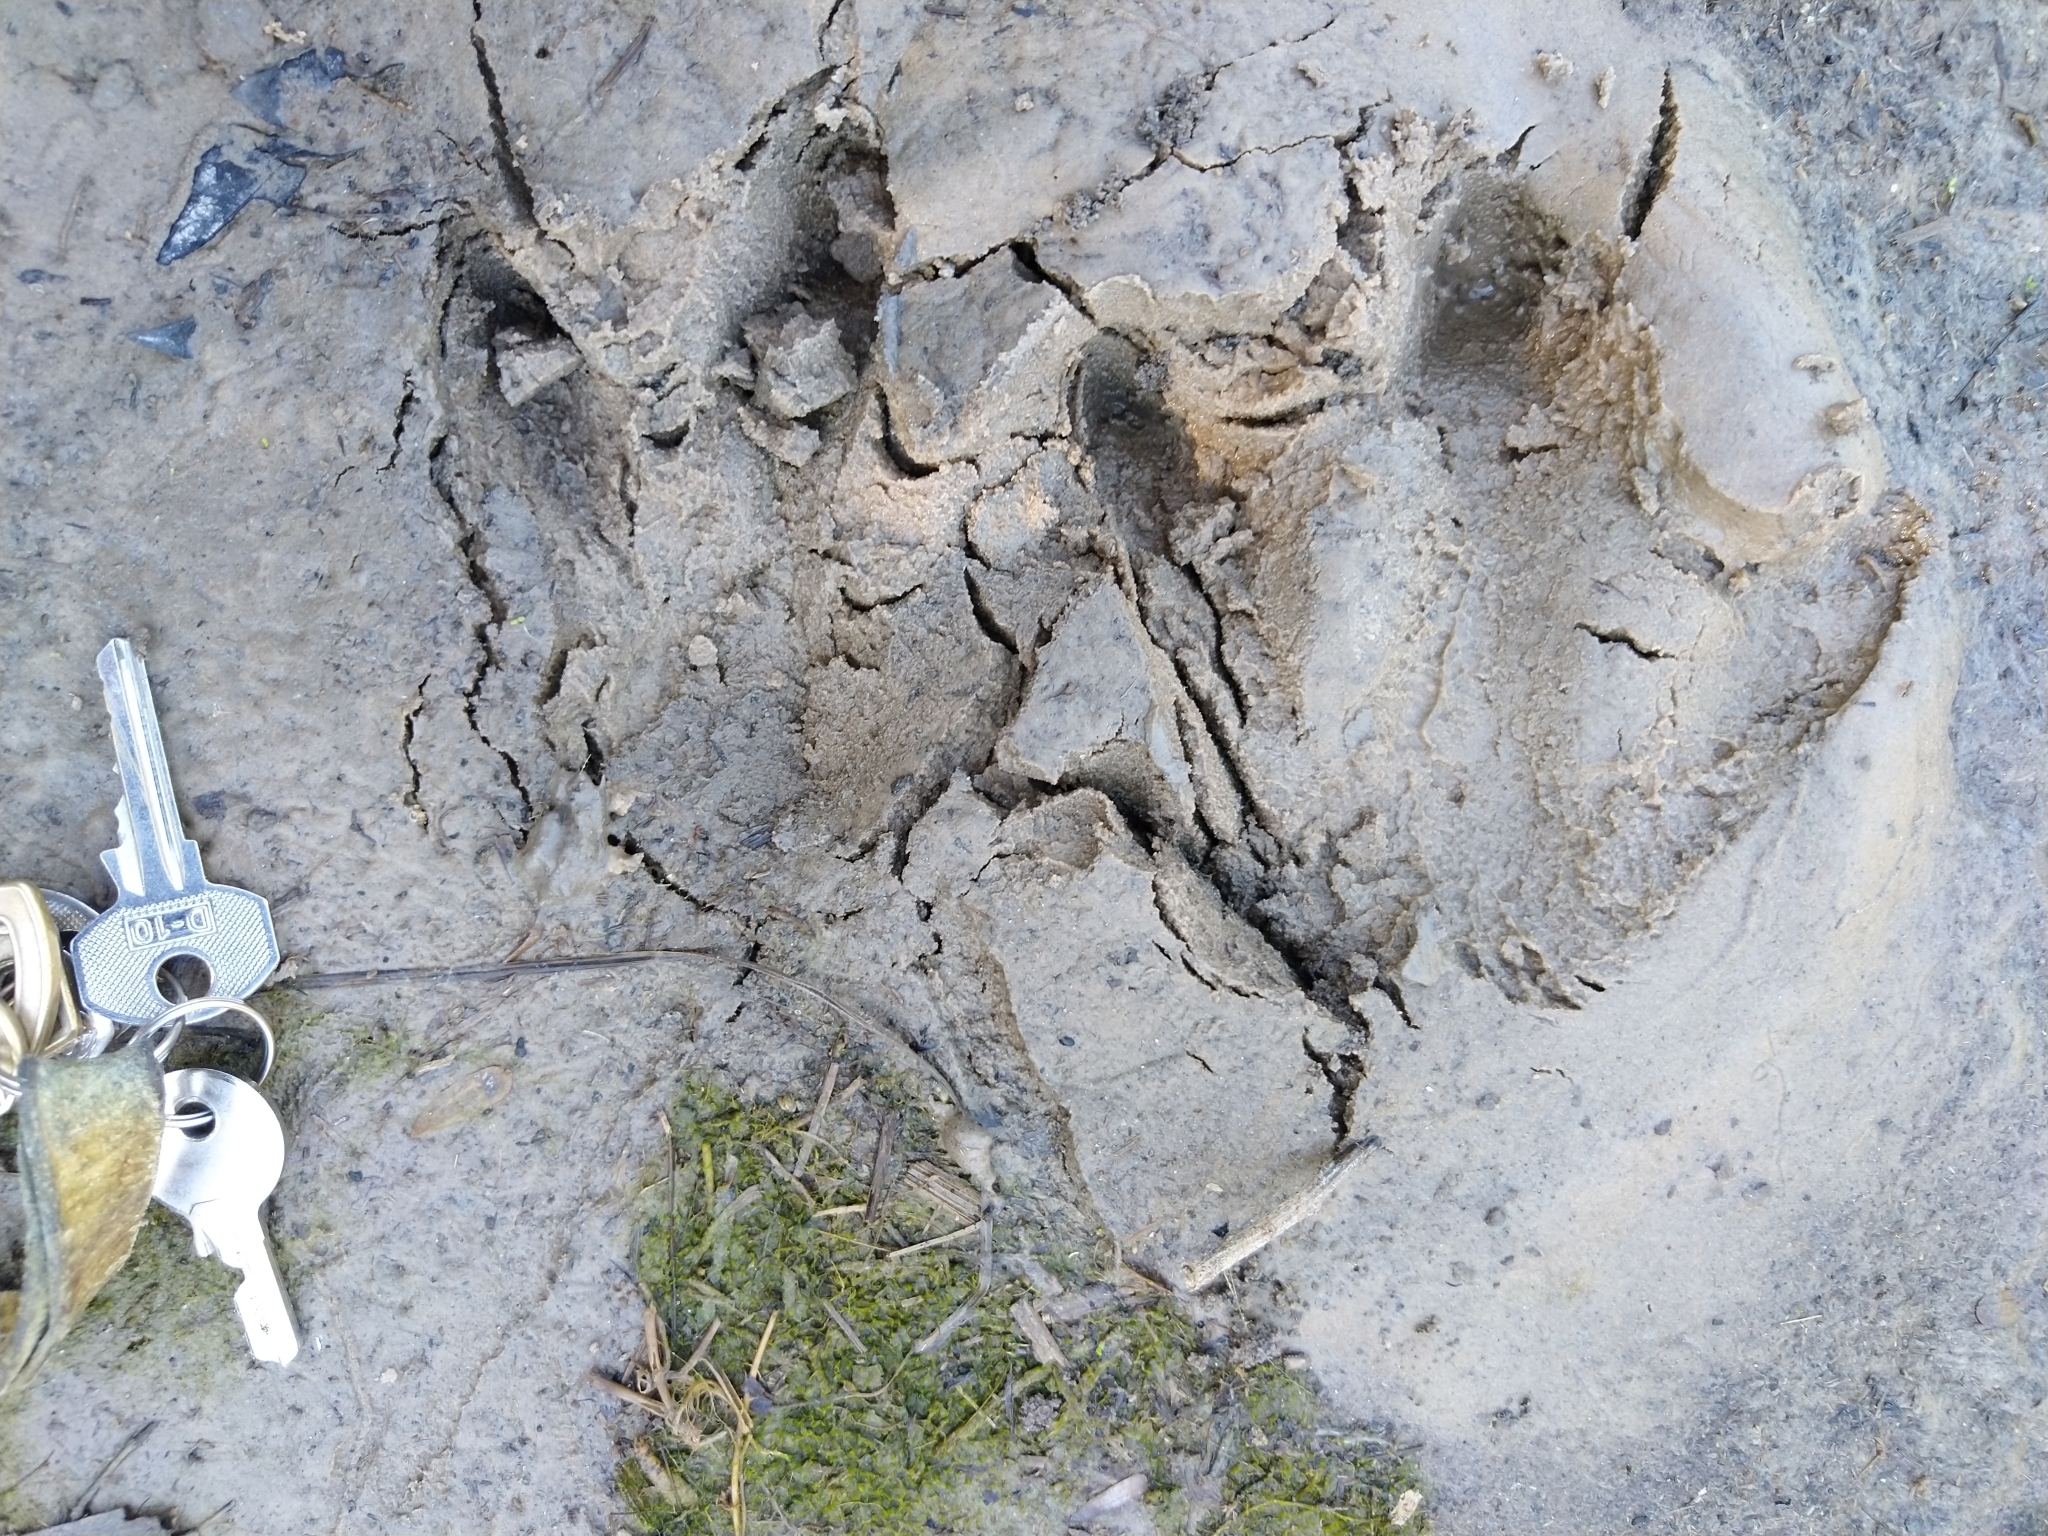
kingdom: Animalia
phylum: Chordata
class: Mammalia
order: Rodentia
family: Caviidae
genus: Hydrochoerus
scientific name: Hydrochoerus hydrochaeris
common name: Capybara
